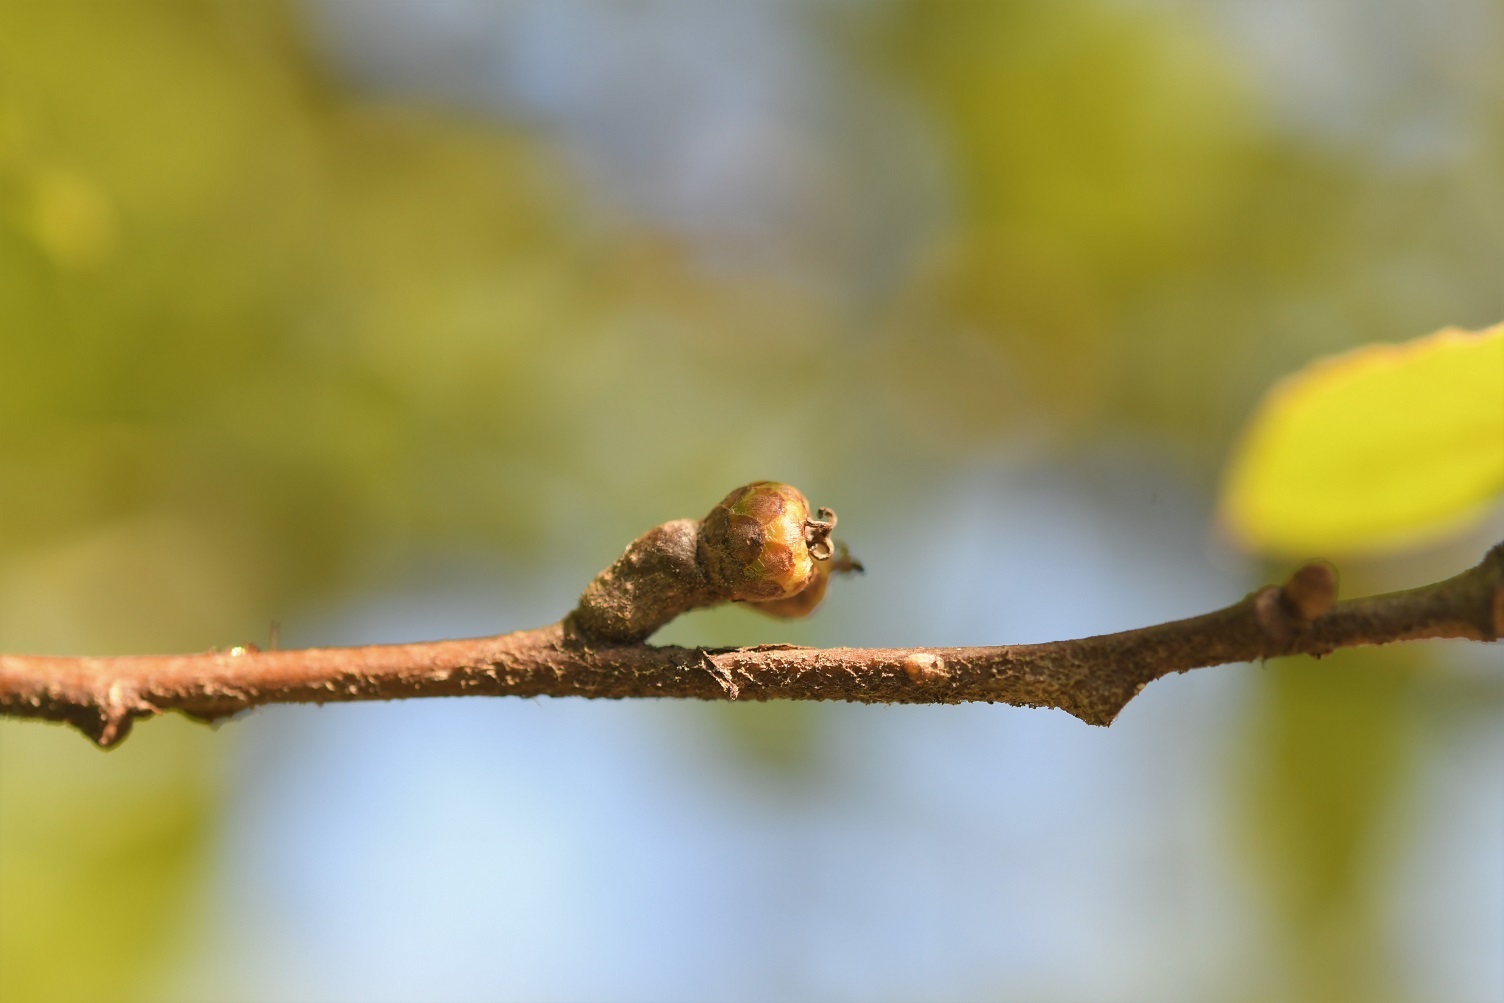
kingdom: Plantae
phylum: Tracheophyta
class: Magnoliopsida
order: Fagales
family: Fagaceae
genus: Quercus
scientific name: Quercus crispipilis
